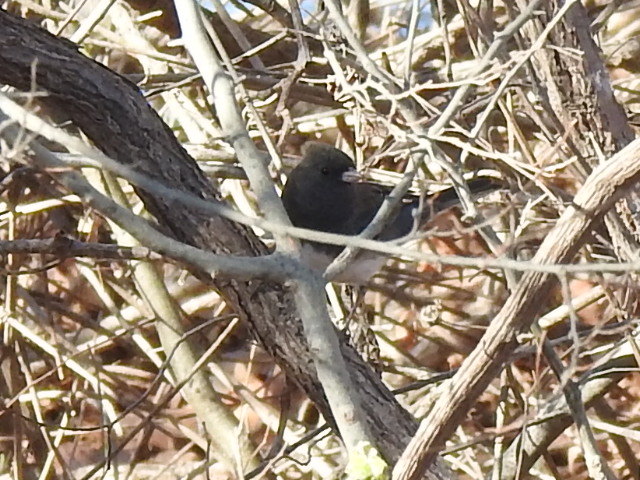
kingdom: Animalia
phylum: Chordata
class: Aves
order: Passeriformes
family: Passerellidae
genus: Junco
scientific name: Junco hyemalis
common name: Dark-eyed junco
